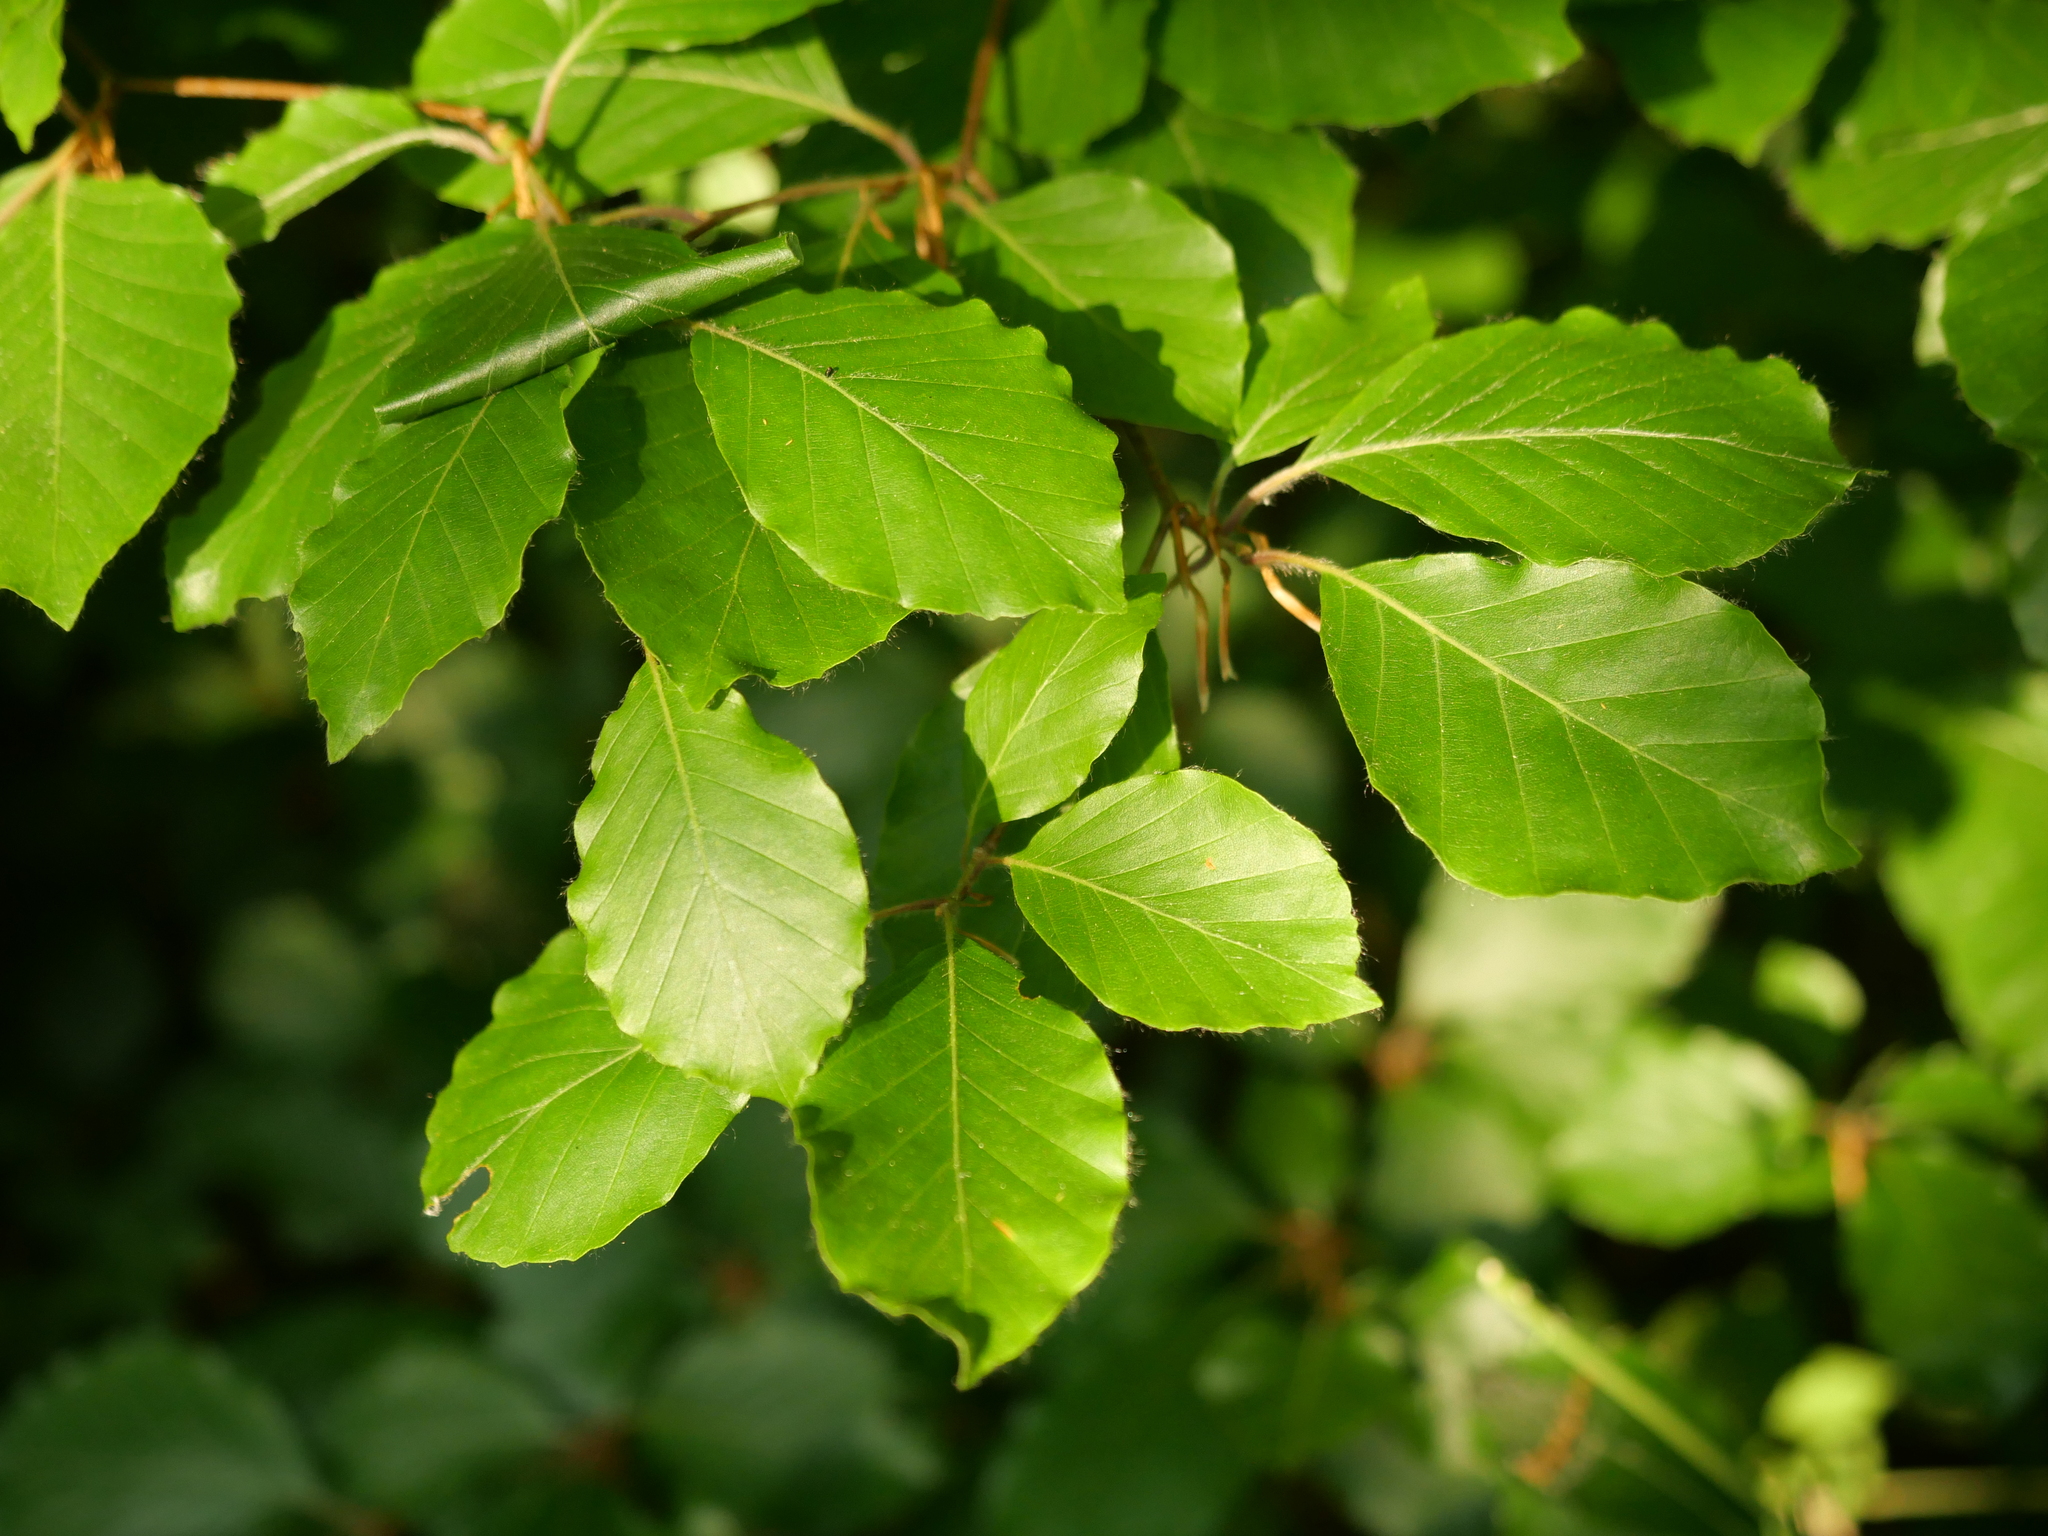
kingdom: Plantae
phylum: Tracheophyta
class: Magnoliopsida
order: Fagales
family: Fagaceae
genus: Fagus
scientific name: Fagus sylvatica
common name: Beech
